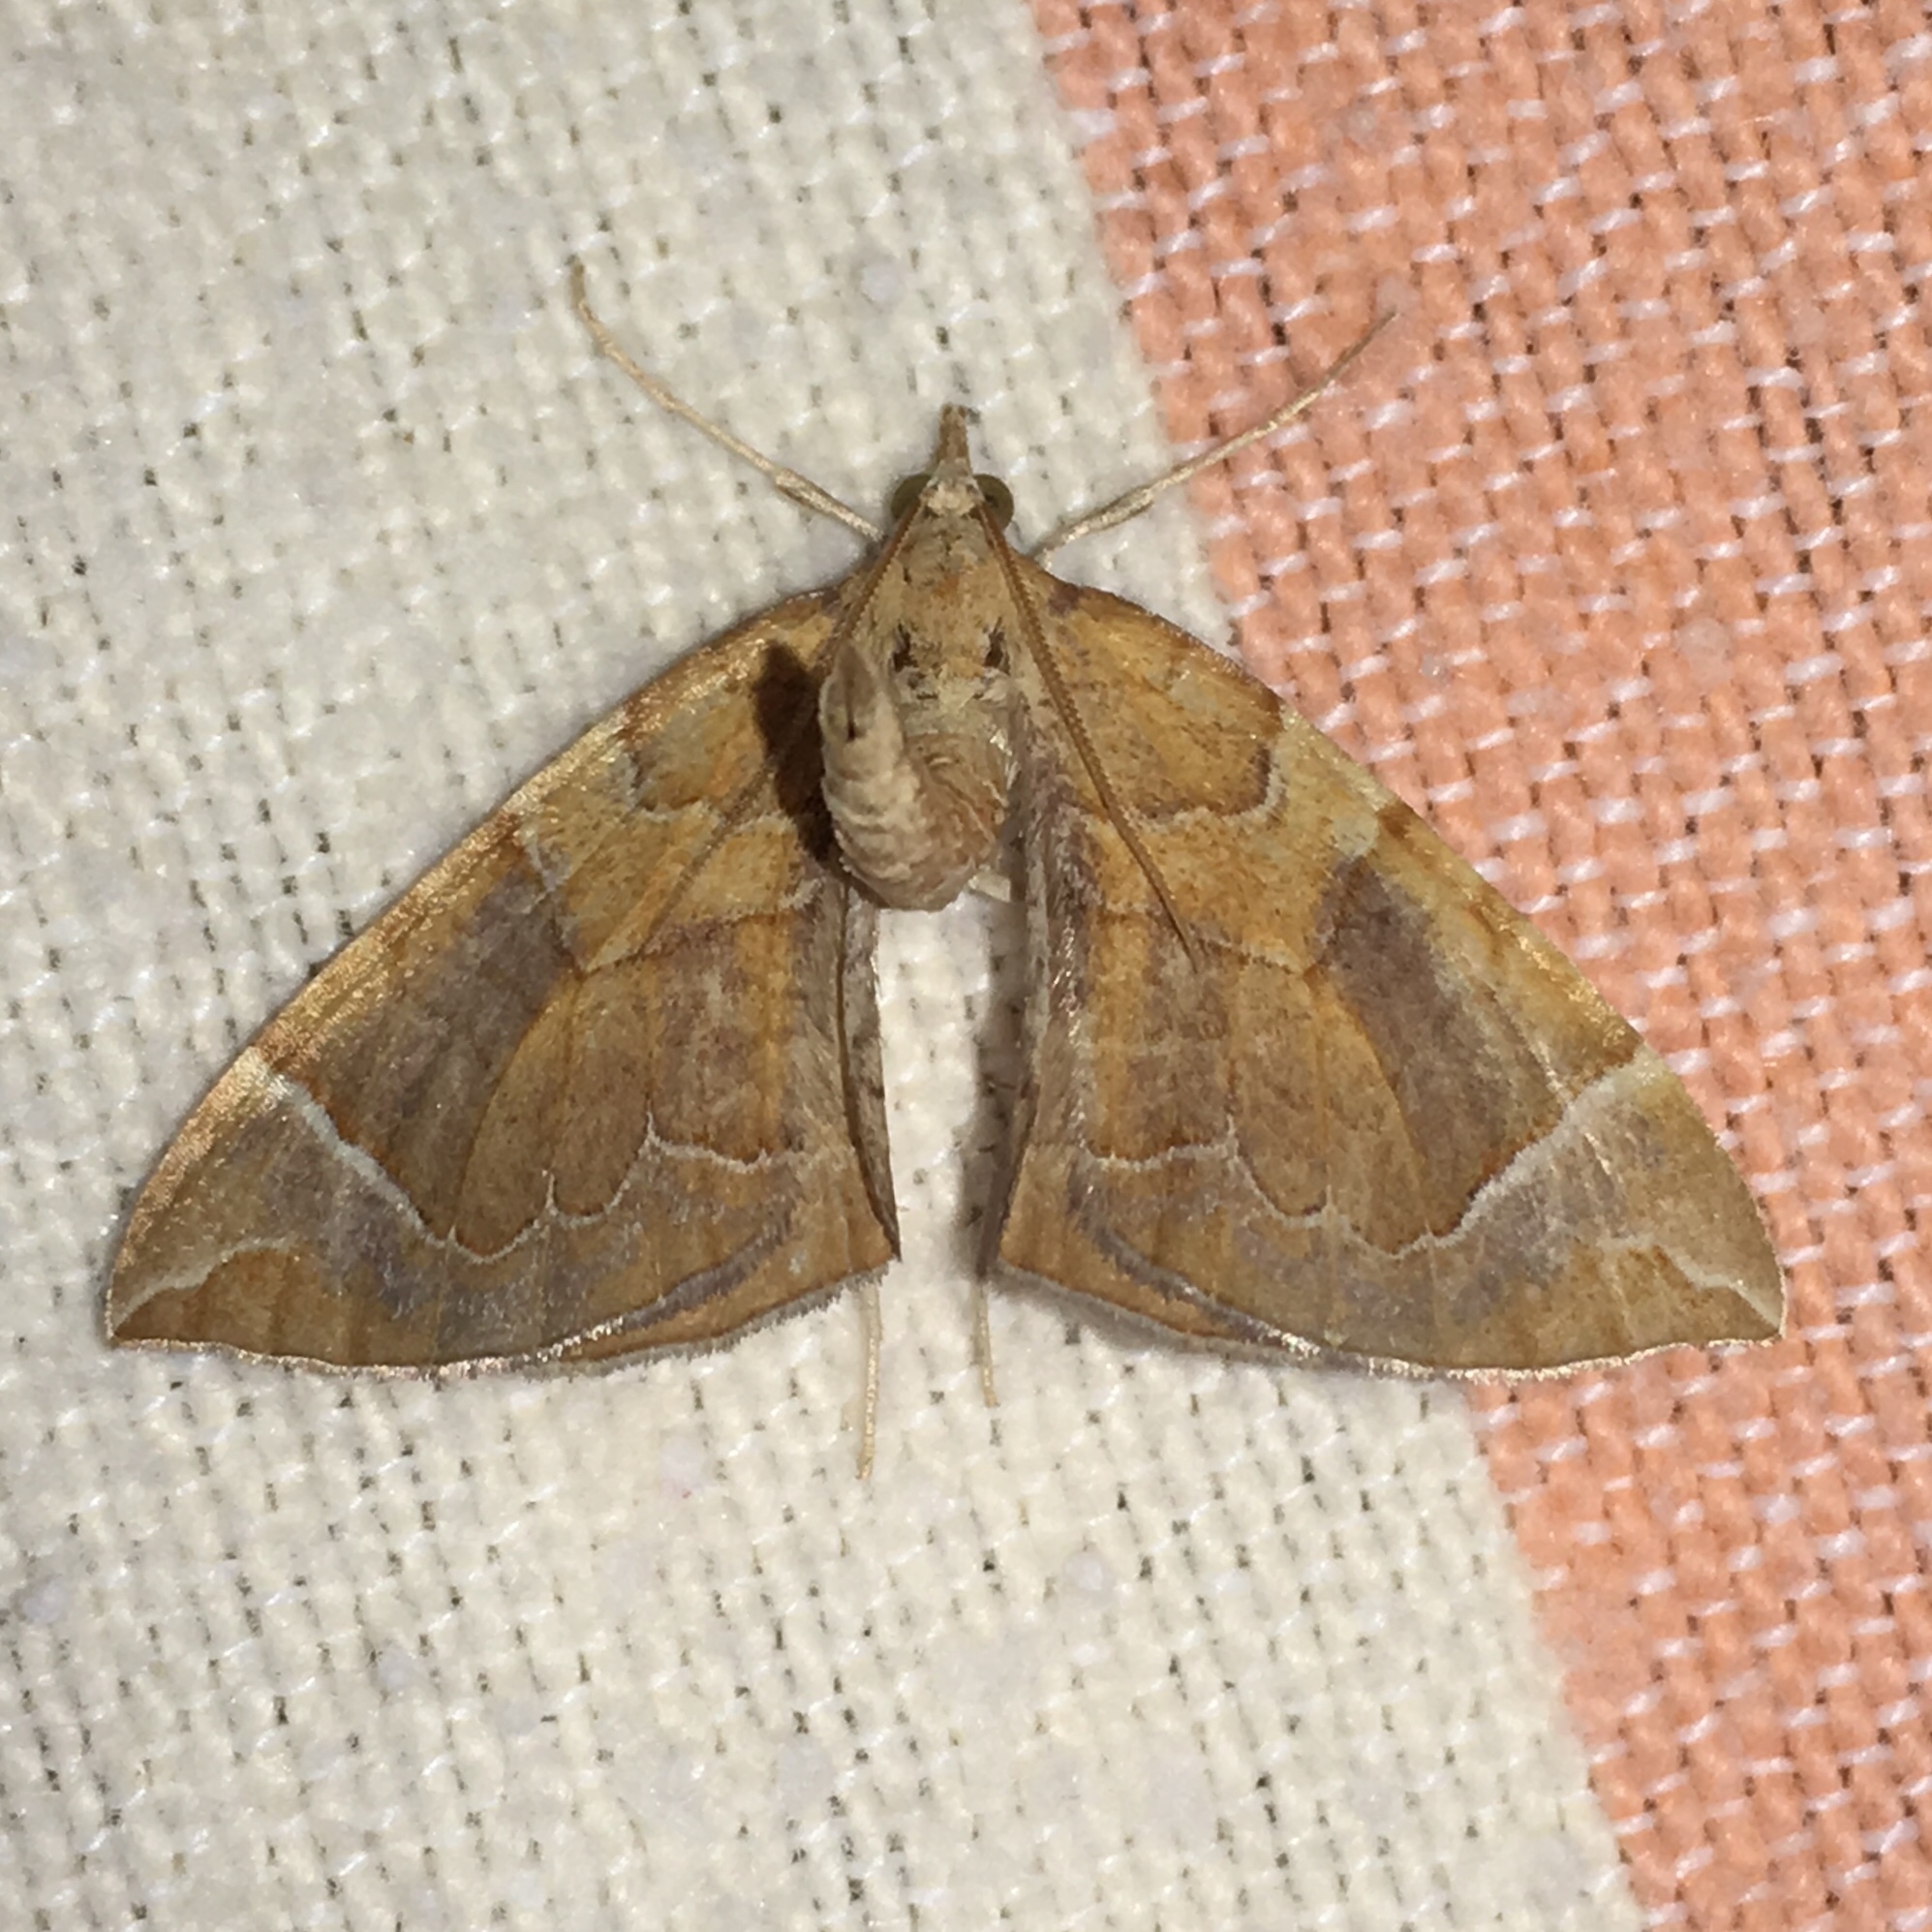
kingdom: Animalia
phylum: Arthropoda
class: Insecta
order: Lepidoptera
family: Geometridae
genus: Eulithis
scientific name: Eulithis testata
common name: Chevron
